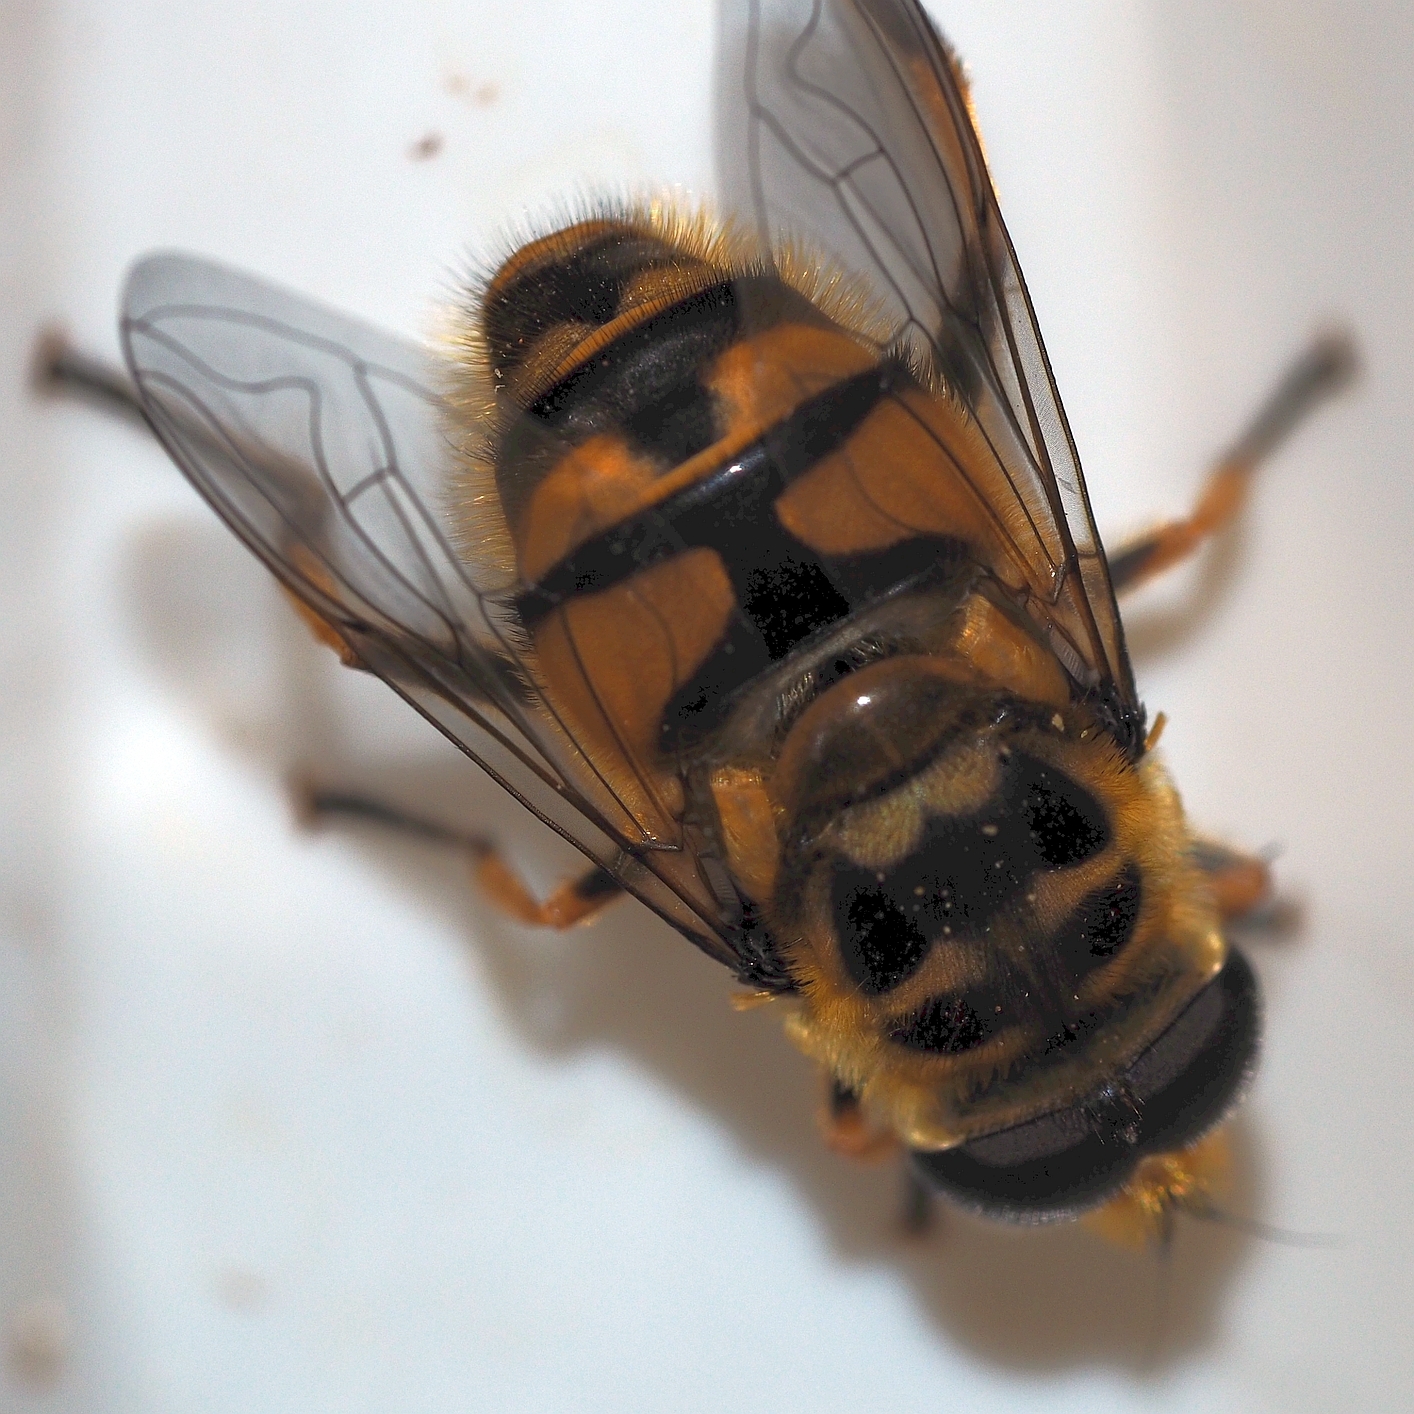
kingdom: Animalia
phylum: Arthropoda
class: Insecta
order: Diptera
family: Syrphidae
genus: Myathropa
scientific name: Myathropa florea
